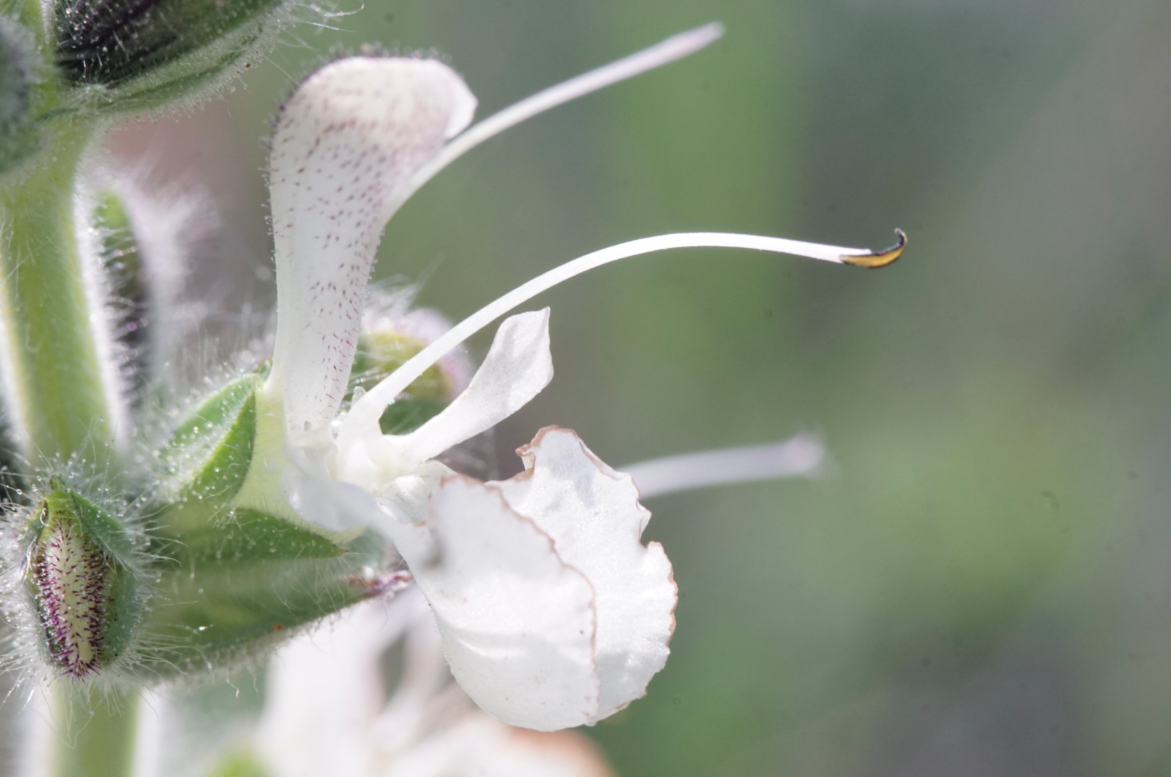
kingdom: Plantae
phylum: Tracheophyta
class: Magnoliopsida
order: Lamiales
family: Lamiaceae
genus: Salvia
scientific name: Salvia austriaca
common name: Austrian sage
